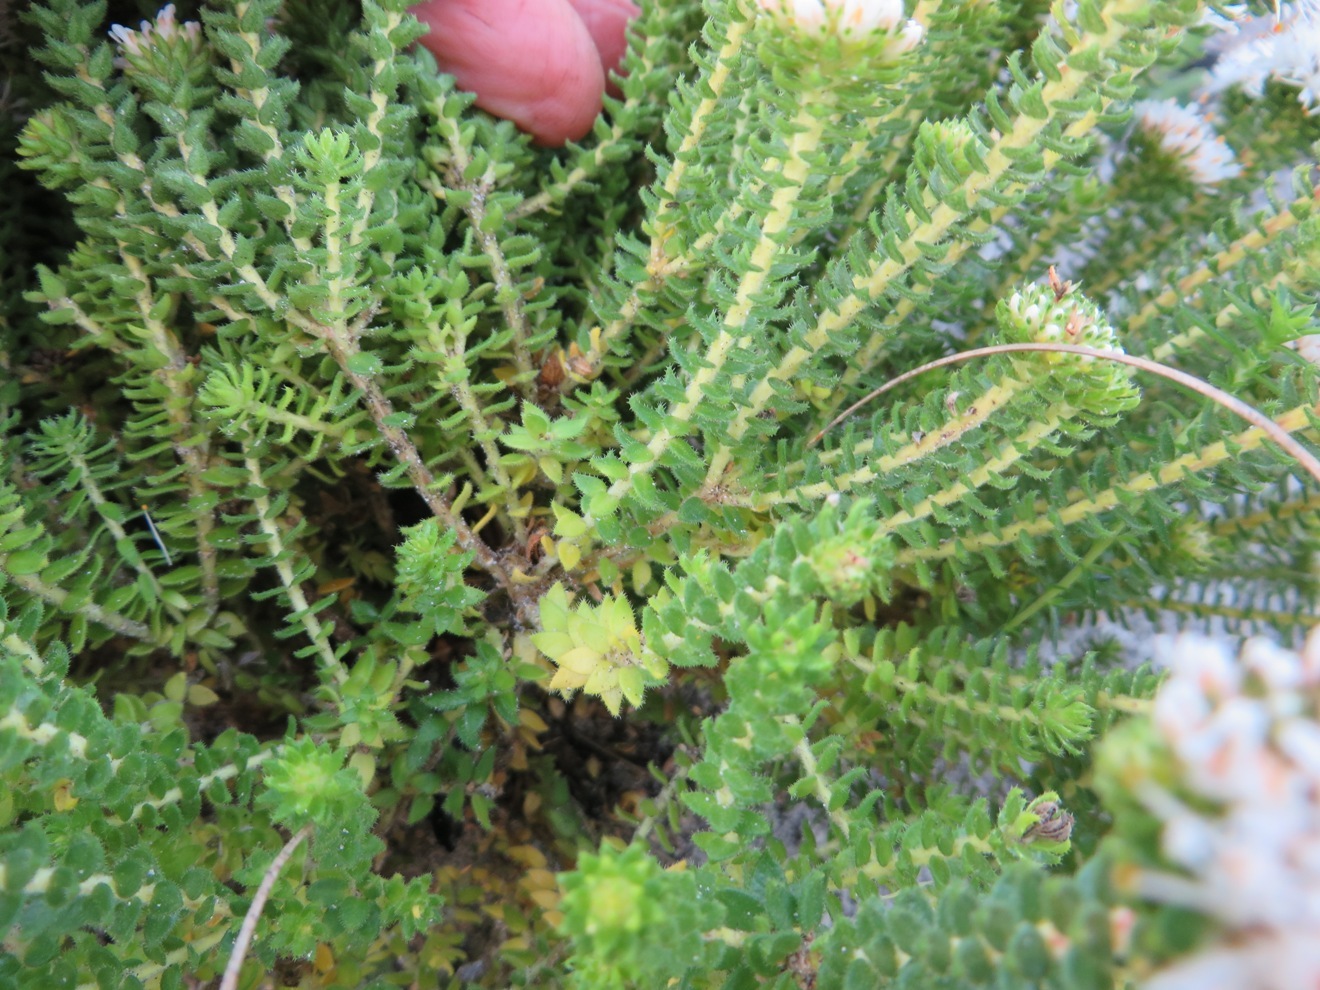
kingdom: Plantae
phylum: Tracheophyta
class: Magnoliopsida
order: Sapindales
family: Rutaceae
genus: Agathosma
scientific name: Agathosma geniculata
